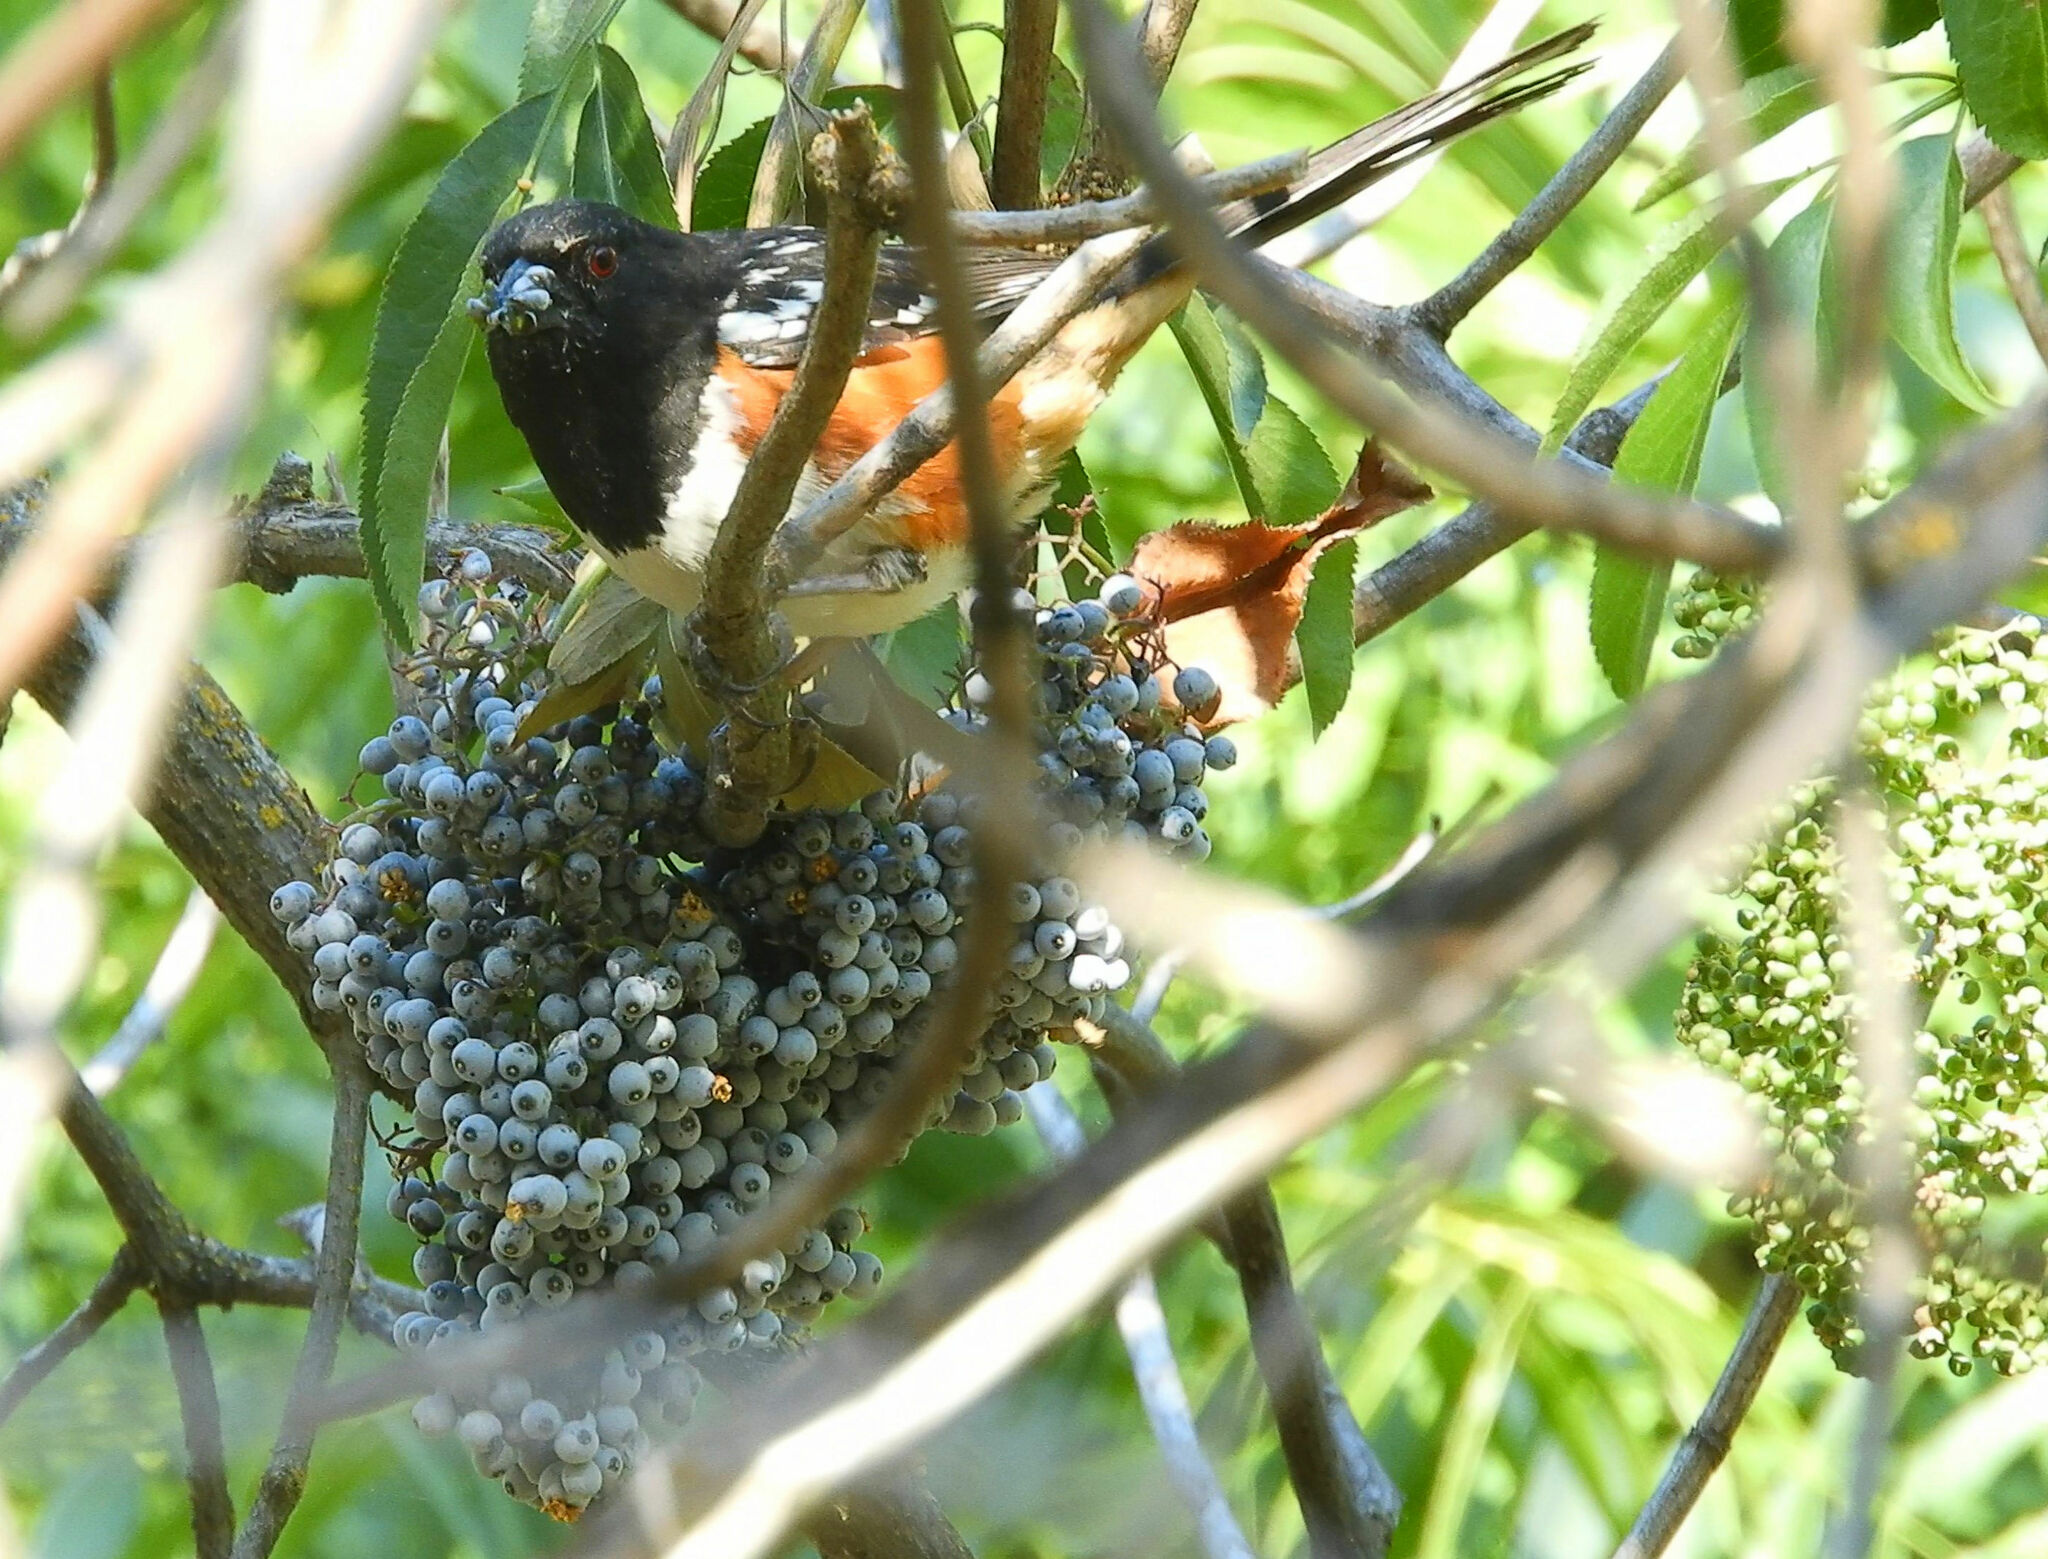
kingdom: Animalia
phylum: Chordata
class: Aves
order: Passeriformes
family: Passerellidae
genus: Pipilo
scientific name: Pipilo maculatus
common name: Spotted towhee
